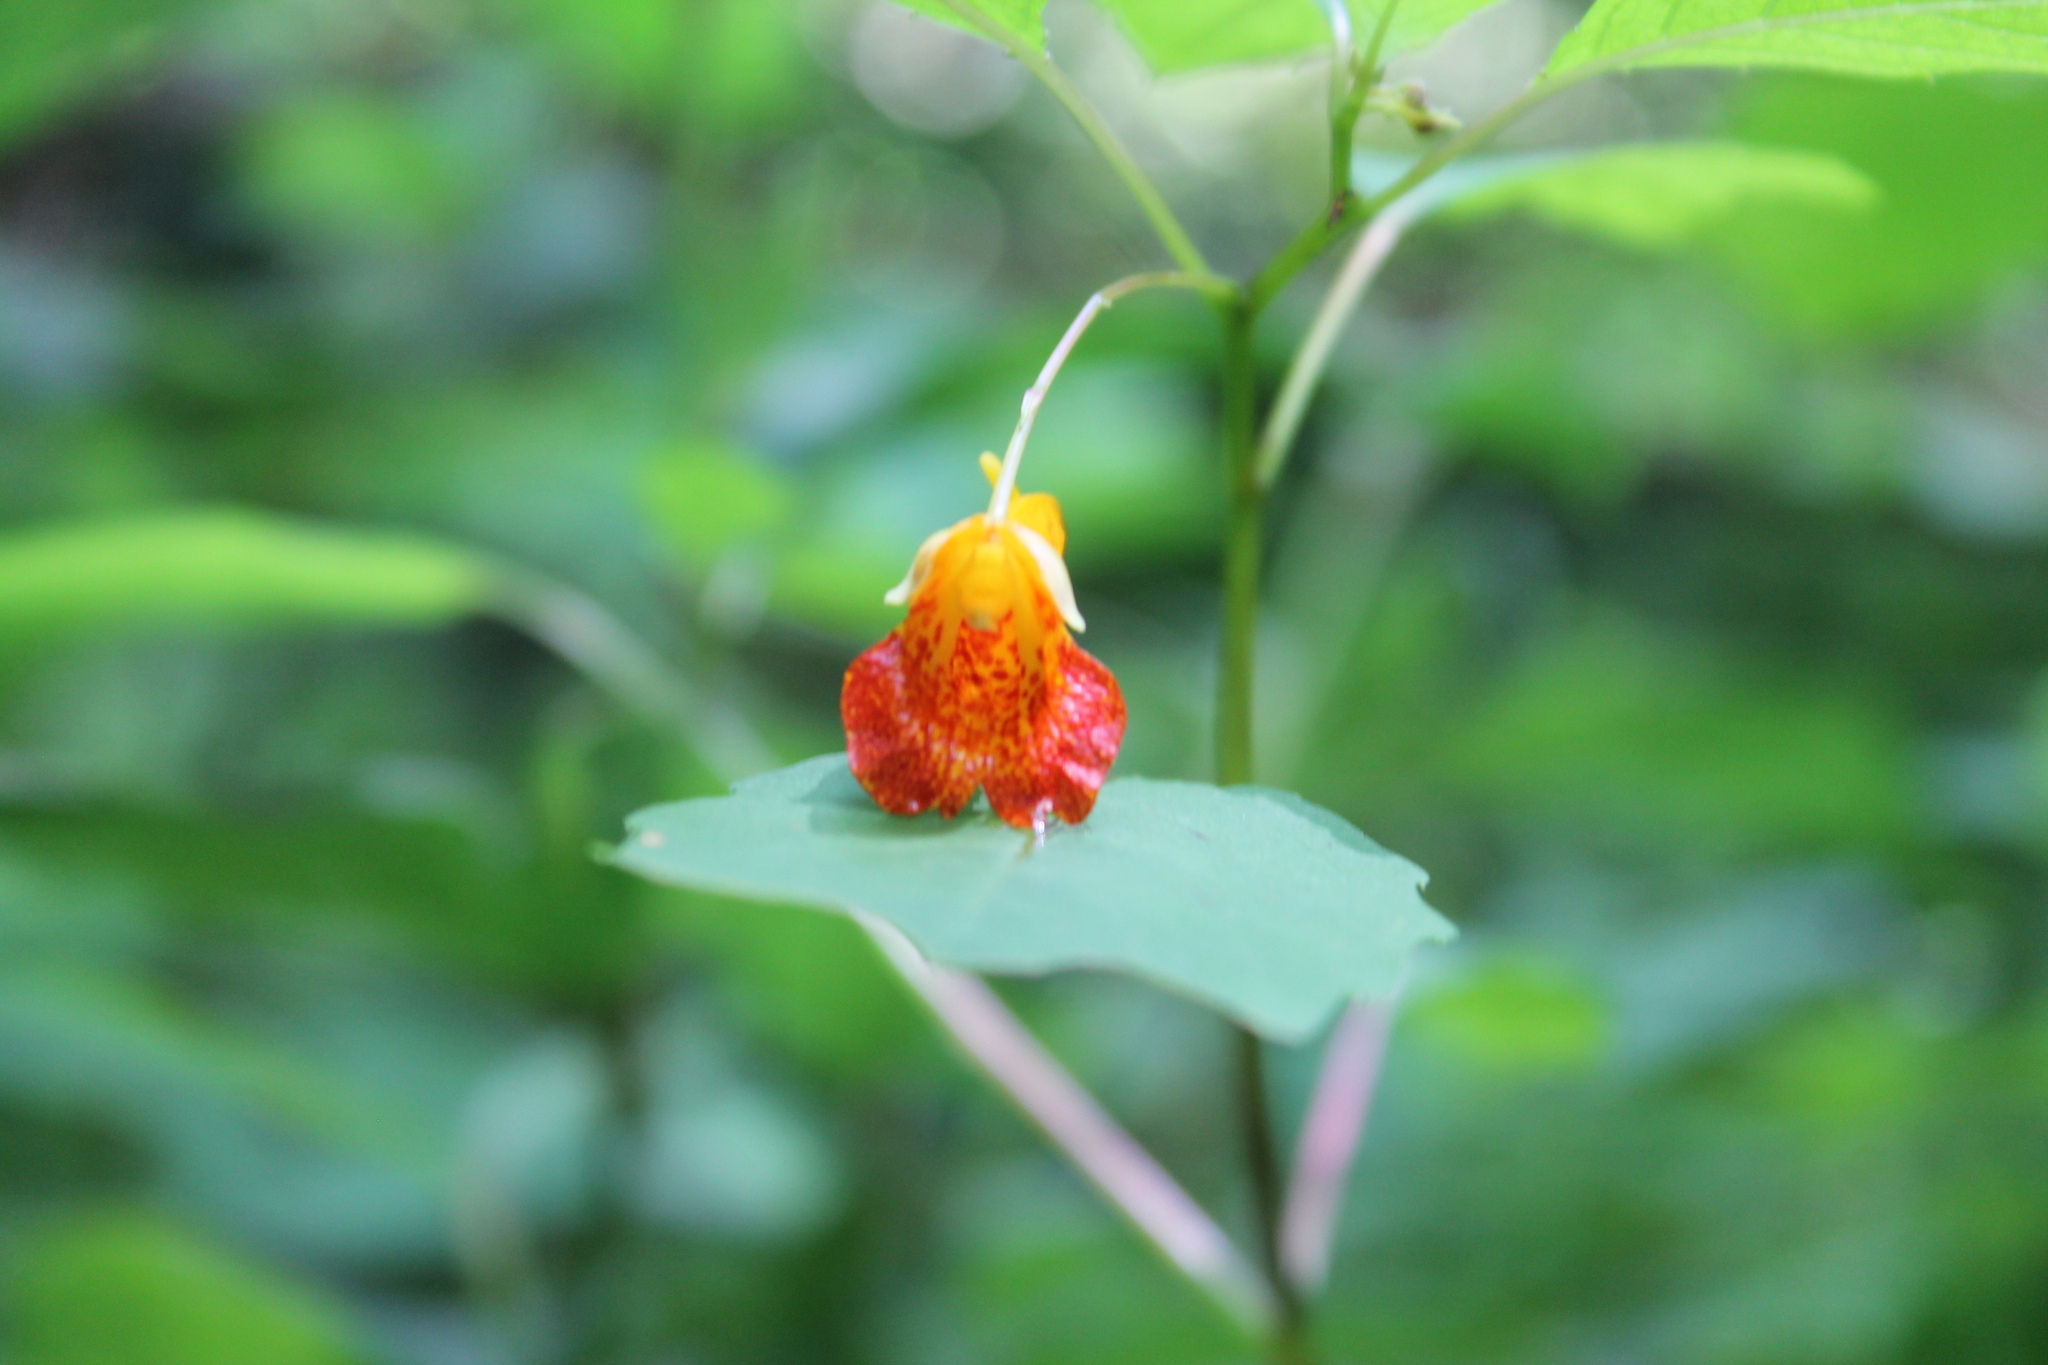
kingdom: Plantae
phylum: Tracheophyta
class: Magnoliopsida
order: Ericales
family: Balsaminaceae
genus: Impatiens
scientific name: Impatiens capensis
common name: Orange balsam
